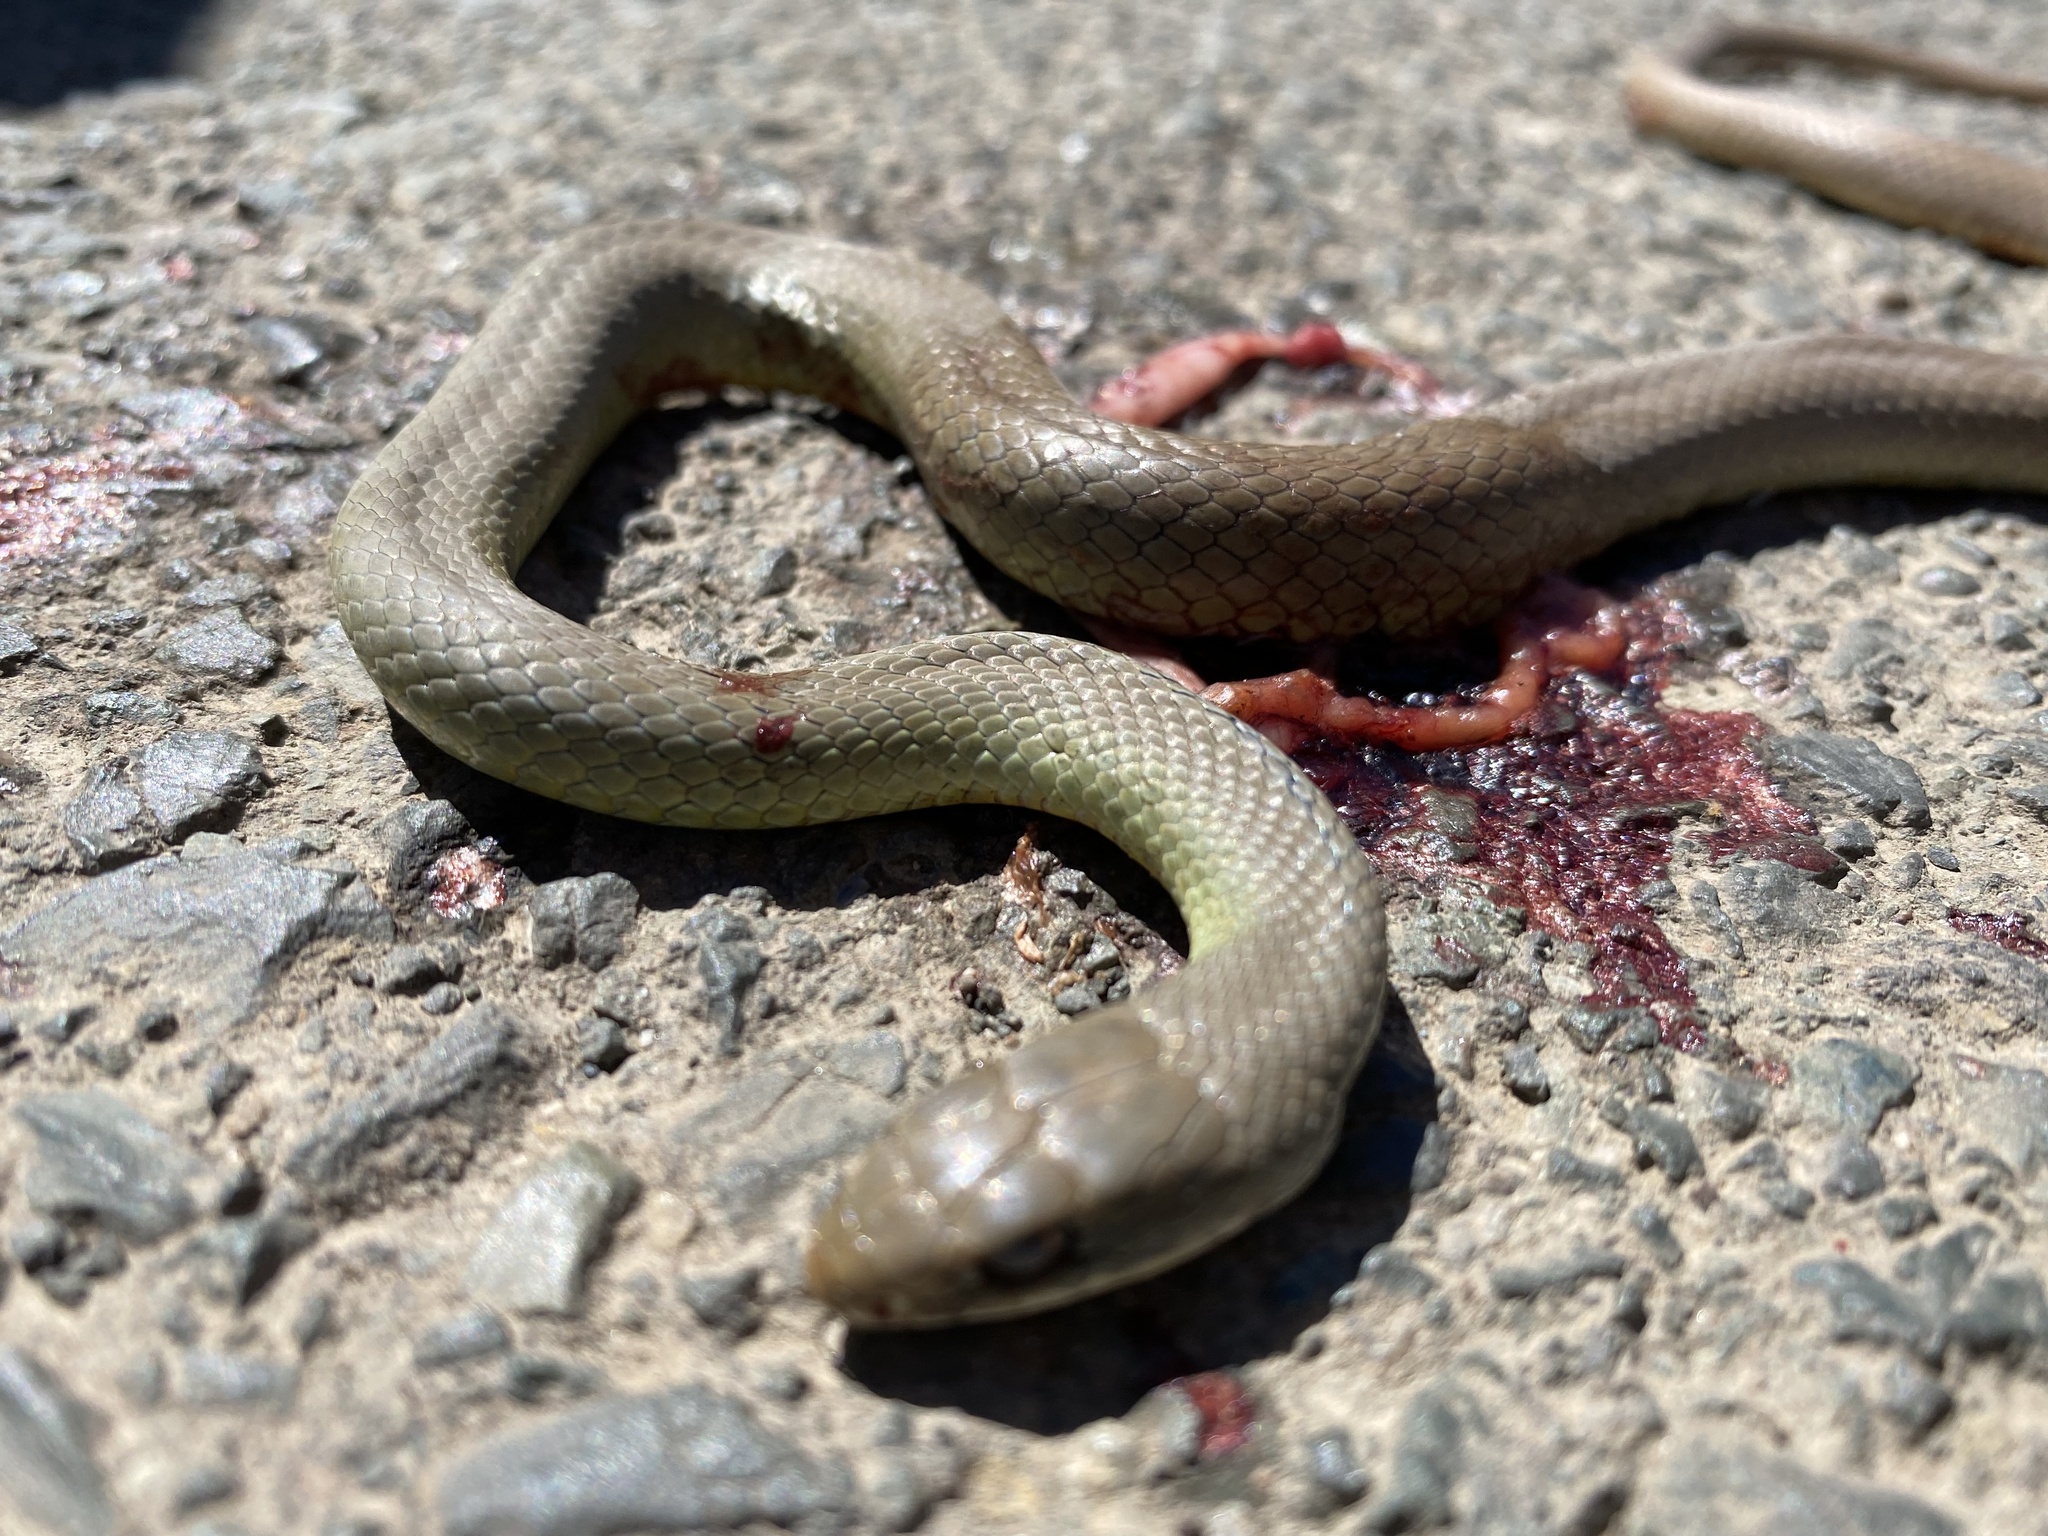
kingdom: Animalia
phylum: Chordata
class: Squamata
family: Colubridae
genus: Coluber
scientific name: Coluber constrictor
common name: Eastern racer
